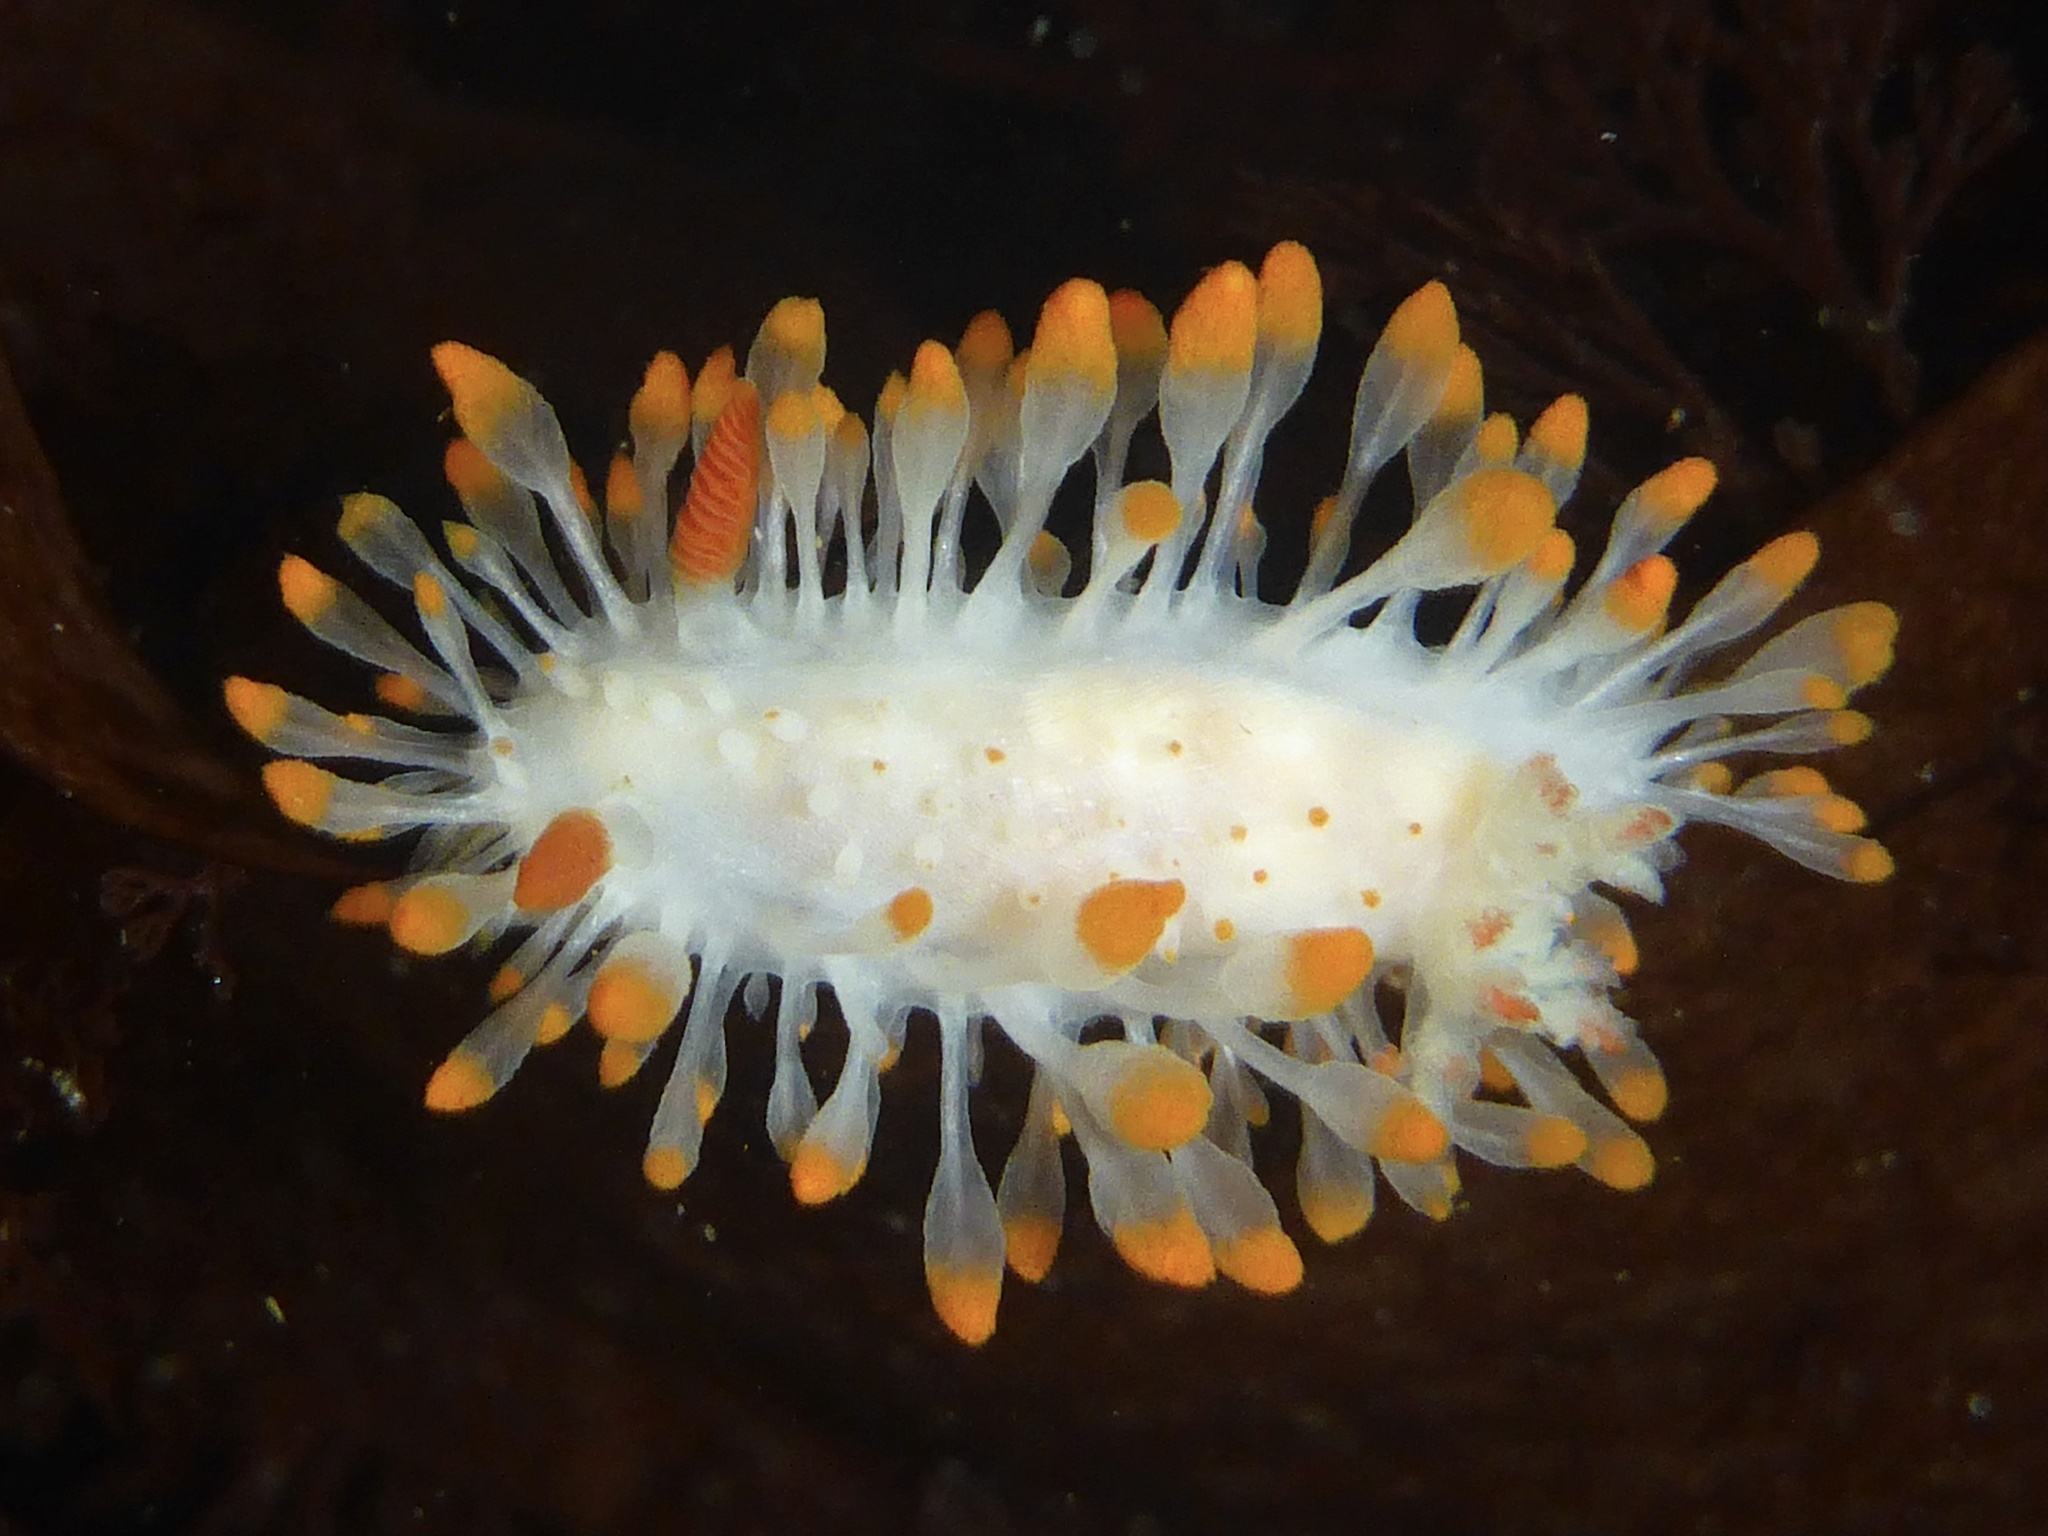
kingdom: Animalia
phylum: Mollusca
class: Gastropoda
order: Nudibranchia
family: Polyceridae
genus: Limacia
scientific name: Limacia cockerelli
